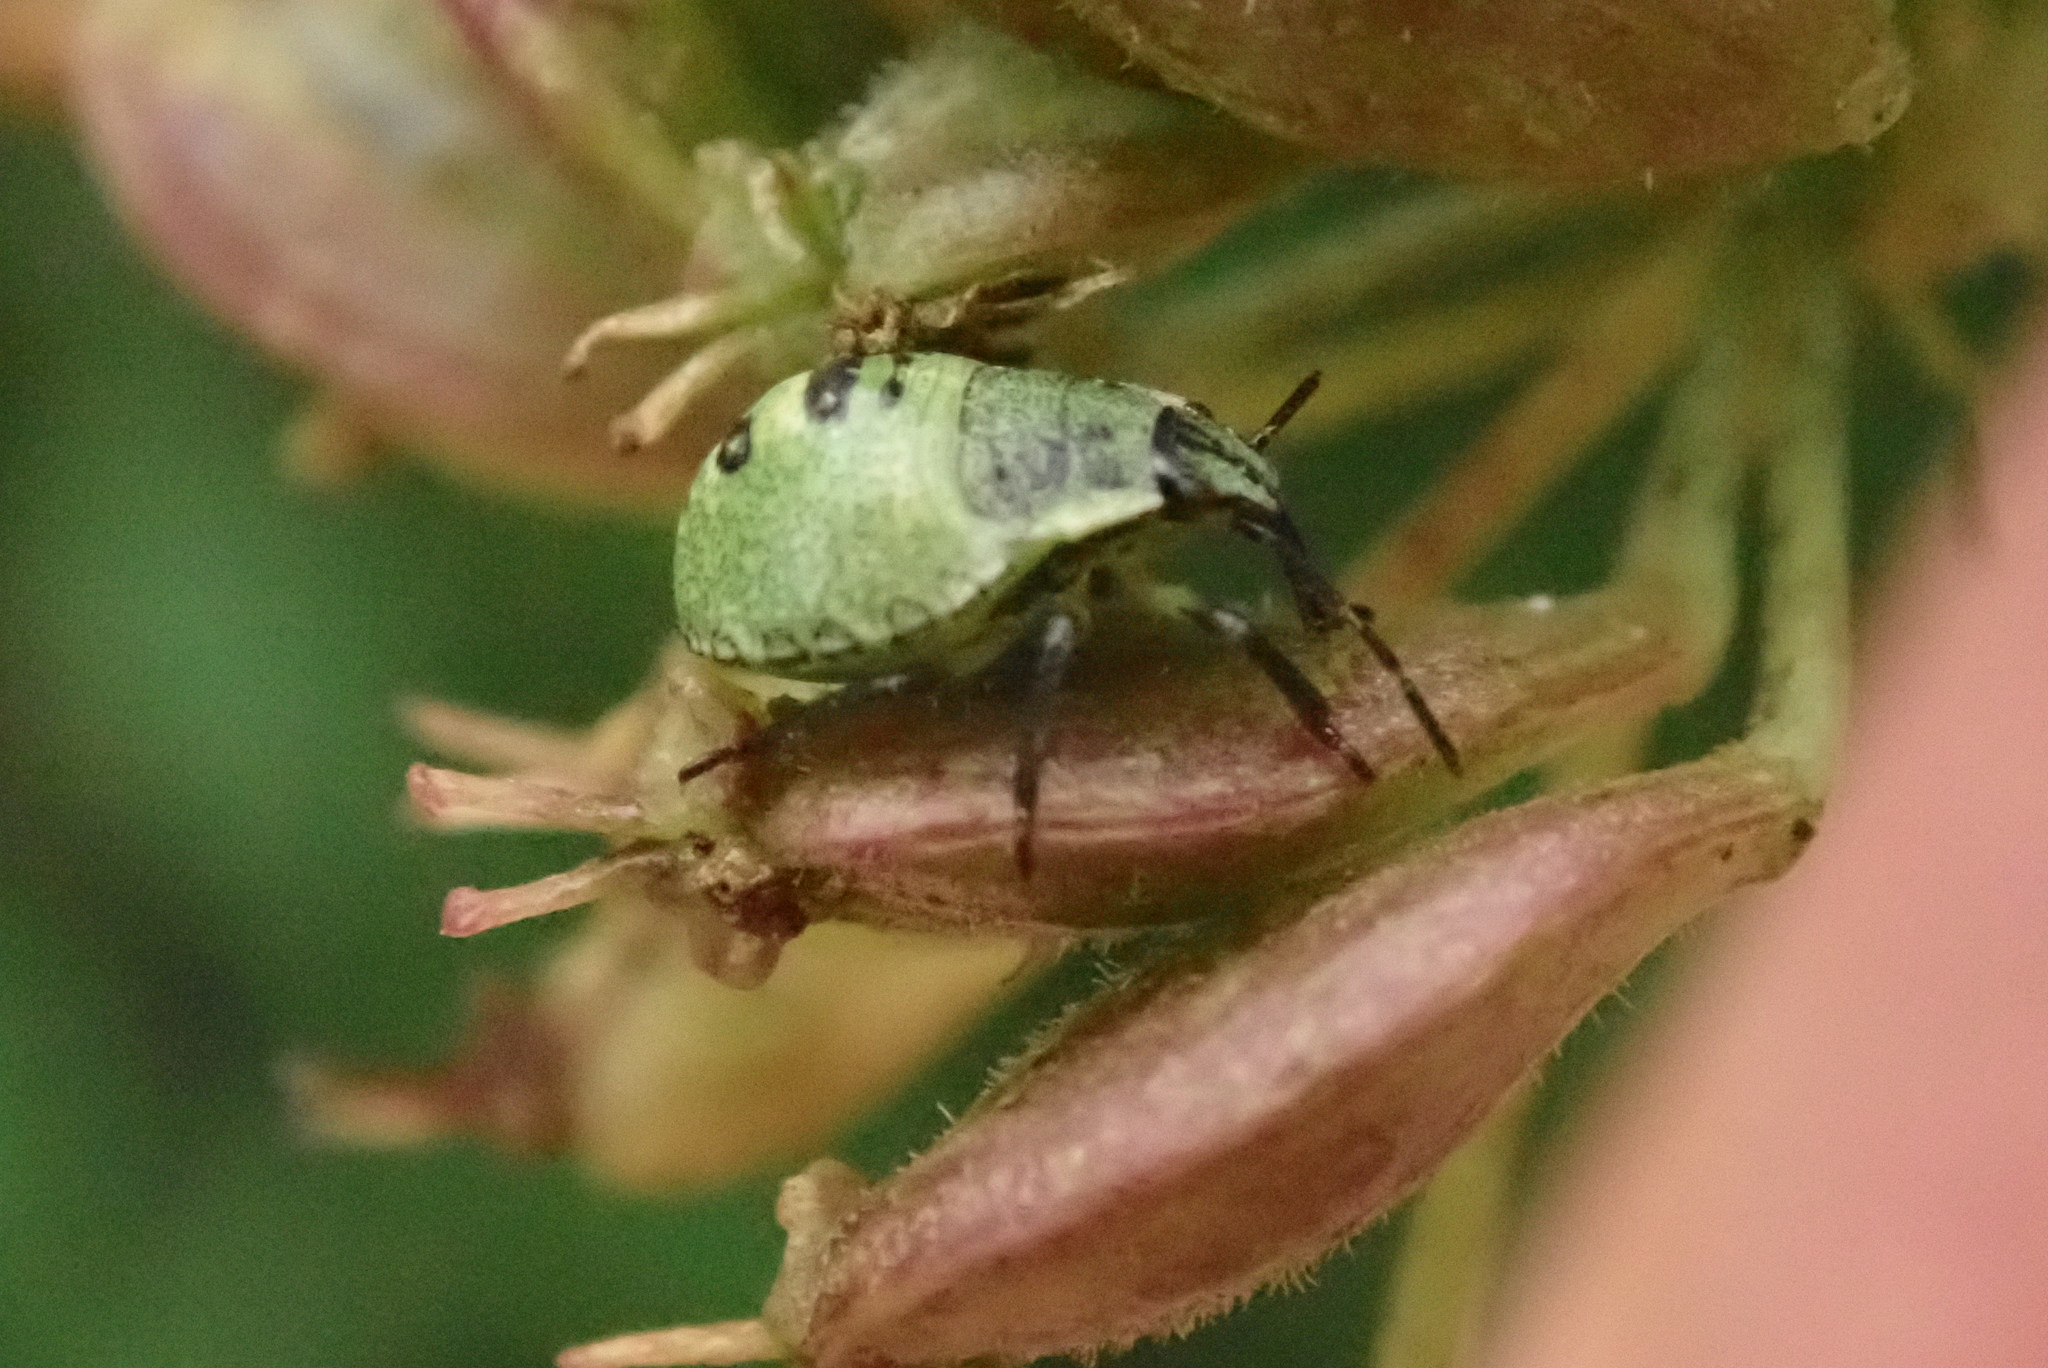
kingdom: Animalia
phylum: Arthropoda
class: Insecta
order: Hemiptera
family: Pentatomidae
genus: Palomena
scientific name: Palomena prasina
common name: Green shieldbug
